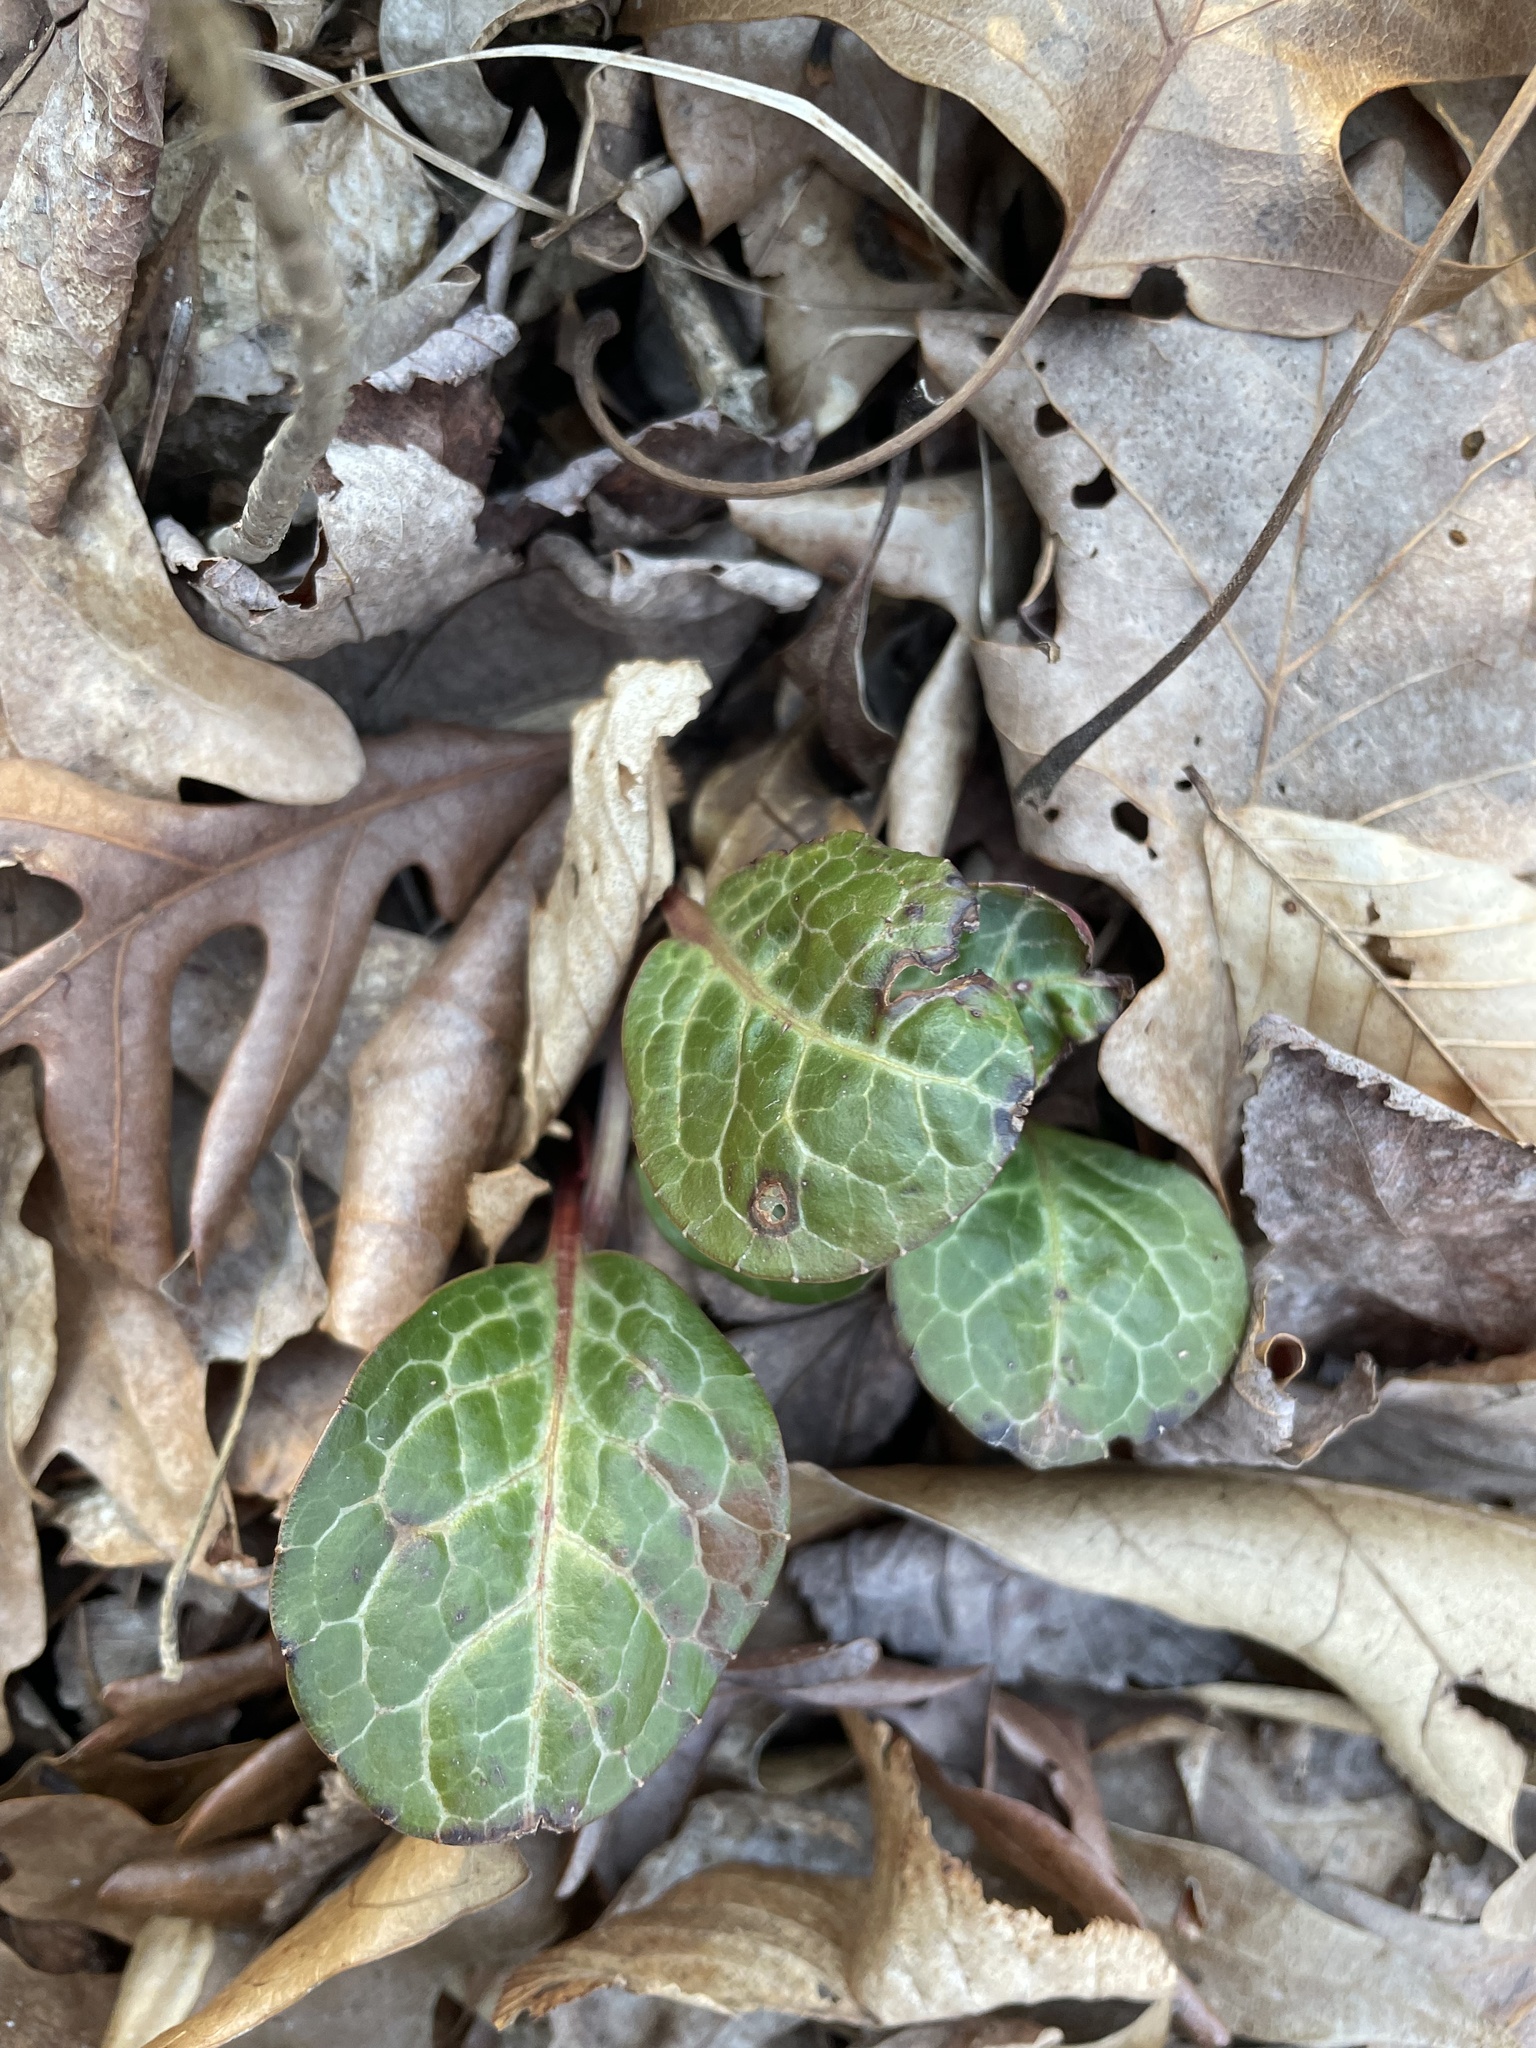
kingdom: Plantae
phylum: Tracheophyta
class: Magnoliopsida
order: Ericales
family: Ericaceae
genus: Pyrola
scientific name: Pyrola americana
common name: American wintergreen
